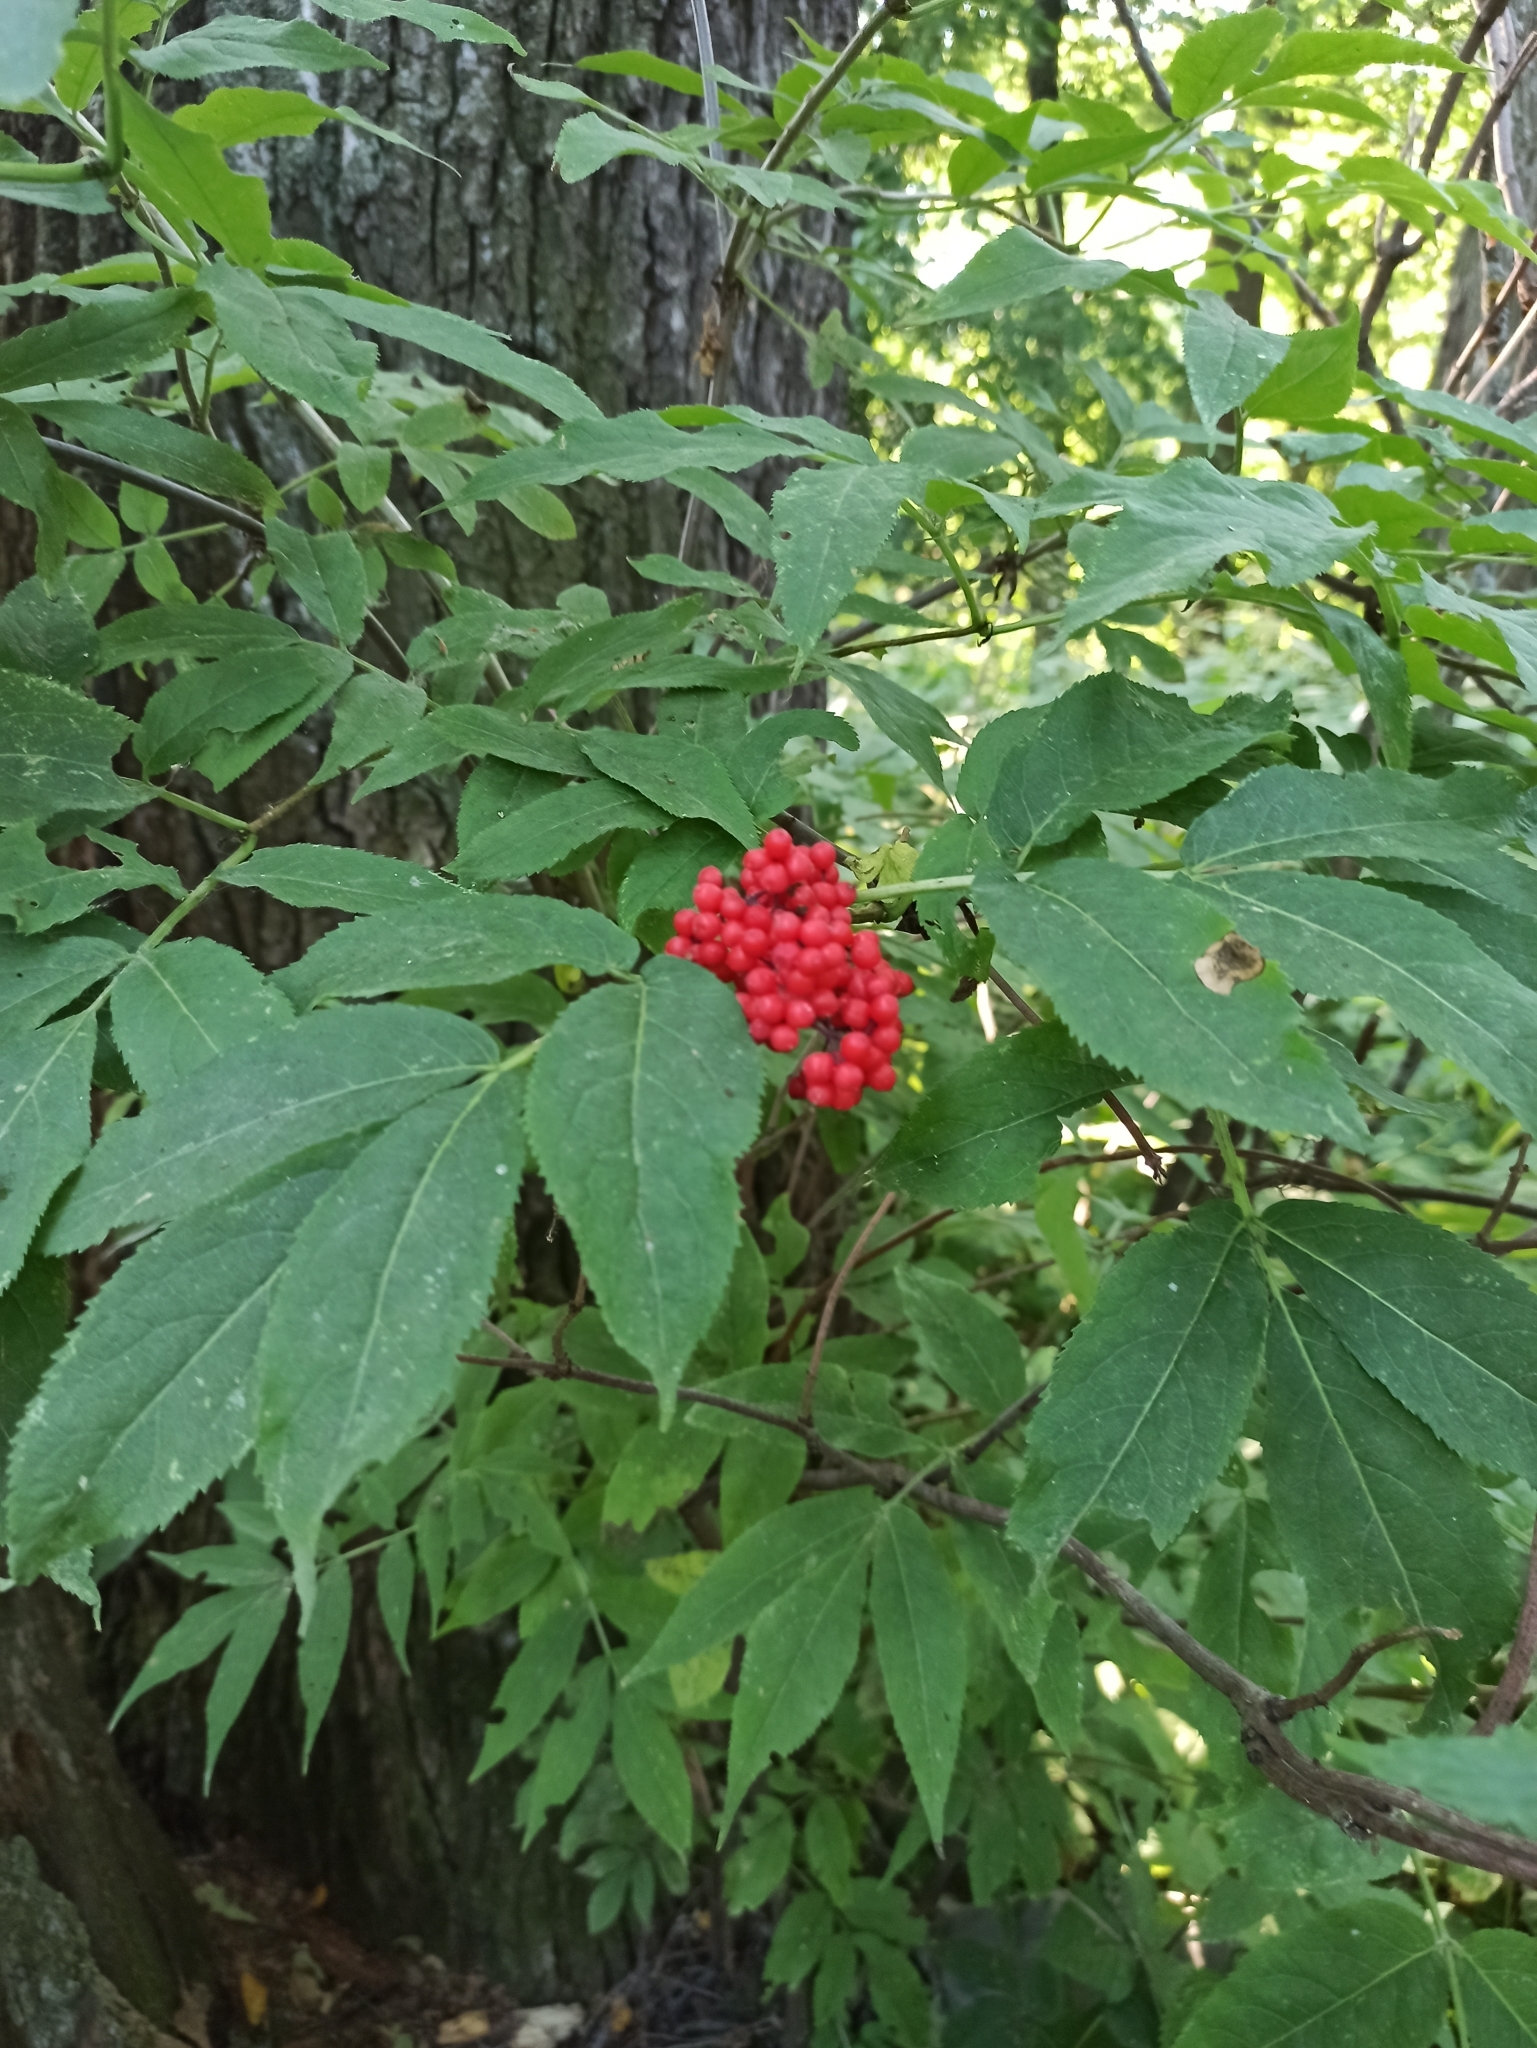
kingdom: Plantae
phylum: Tracheophyta
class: Magnoliopsida
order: Dipsacales
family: Viburnaceae
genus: Sambucus
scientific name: Sambucus racemosa
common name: Red-berried elder
